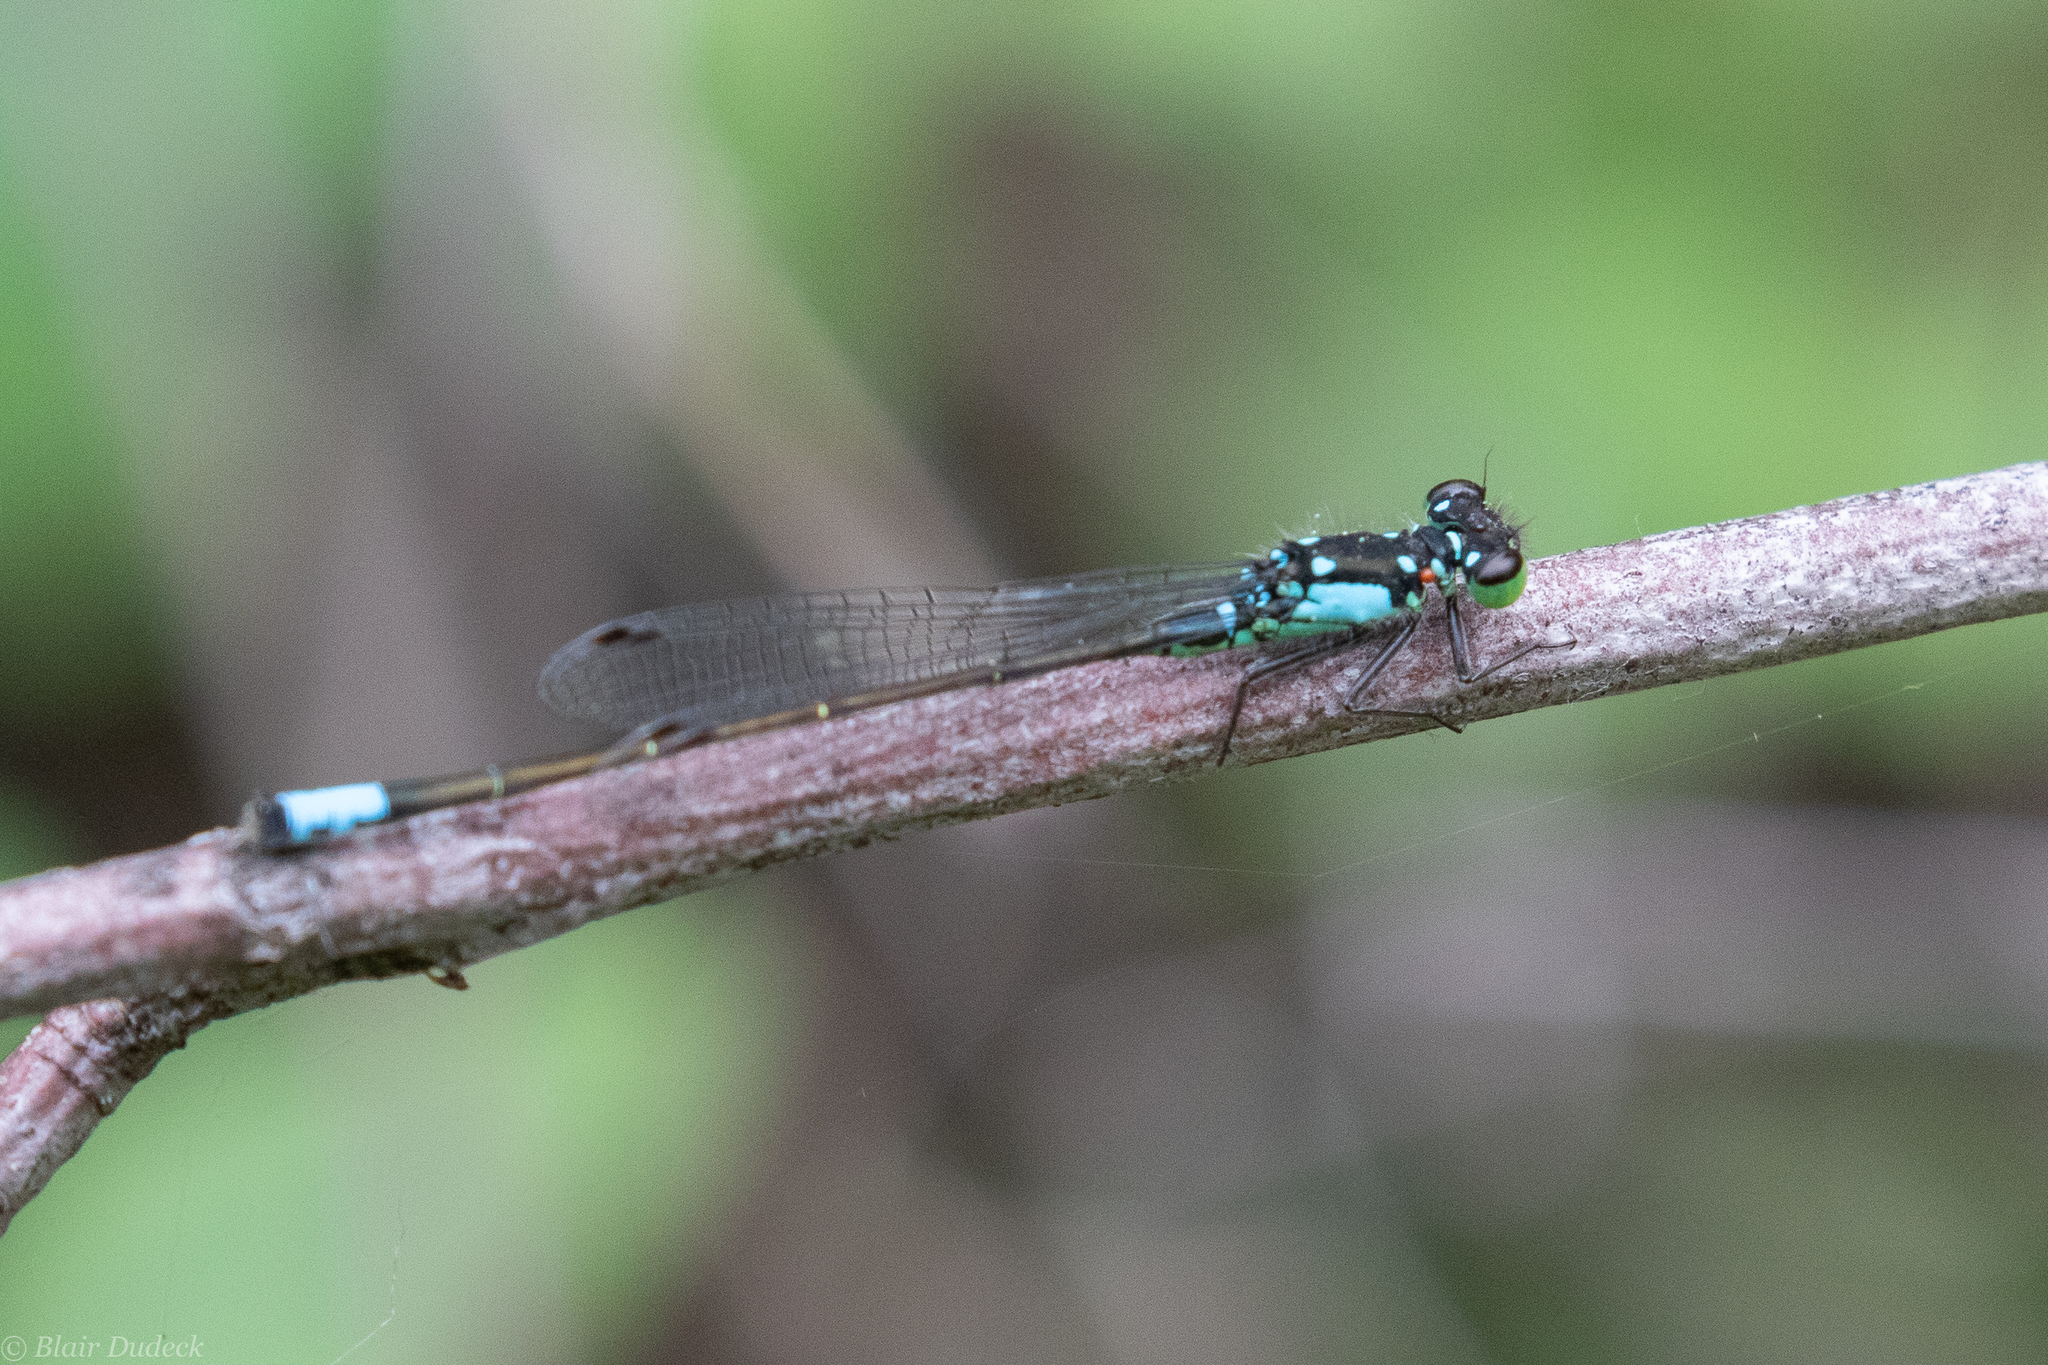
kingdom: Animalia
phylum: Arthropoda
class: Insecta
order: Odonata
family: Coenagrionidae
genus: Ischnura
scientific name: Ischnura cervula
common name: Pacific forktail
